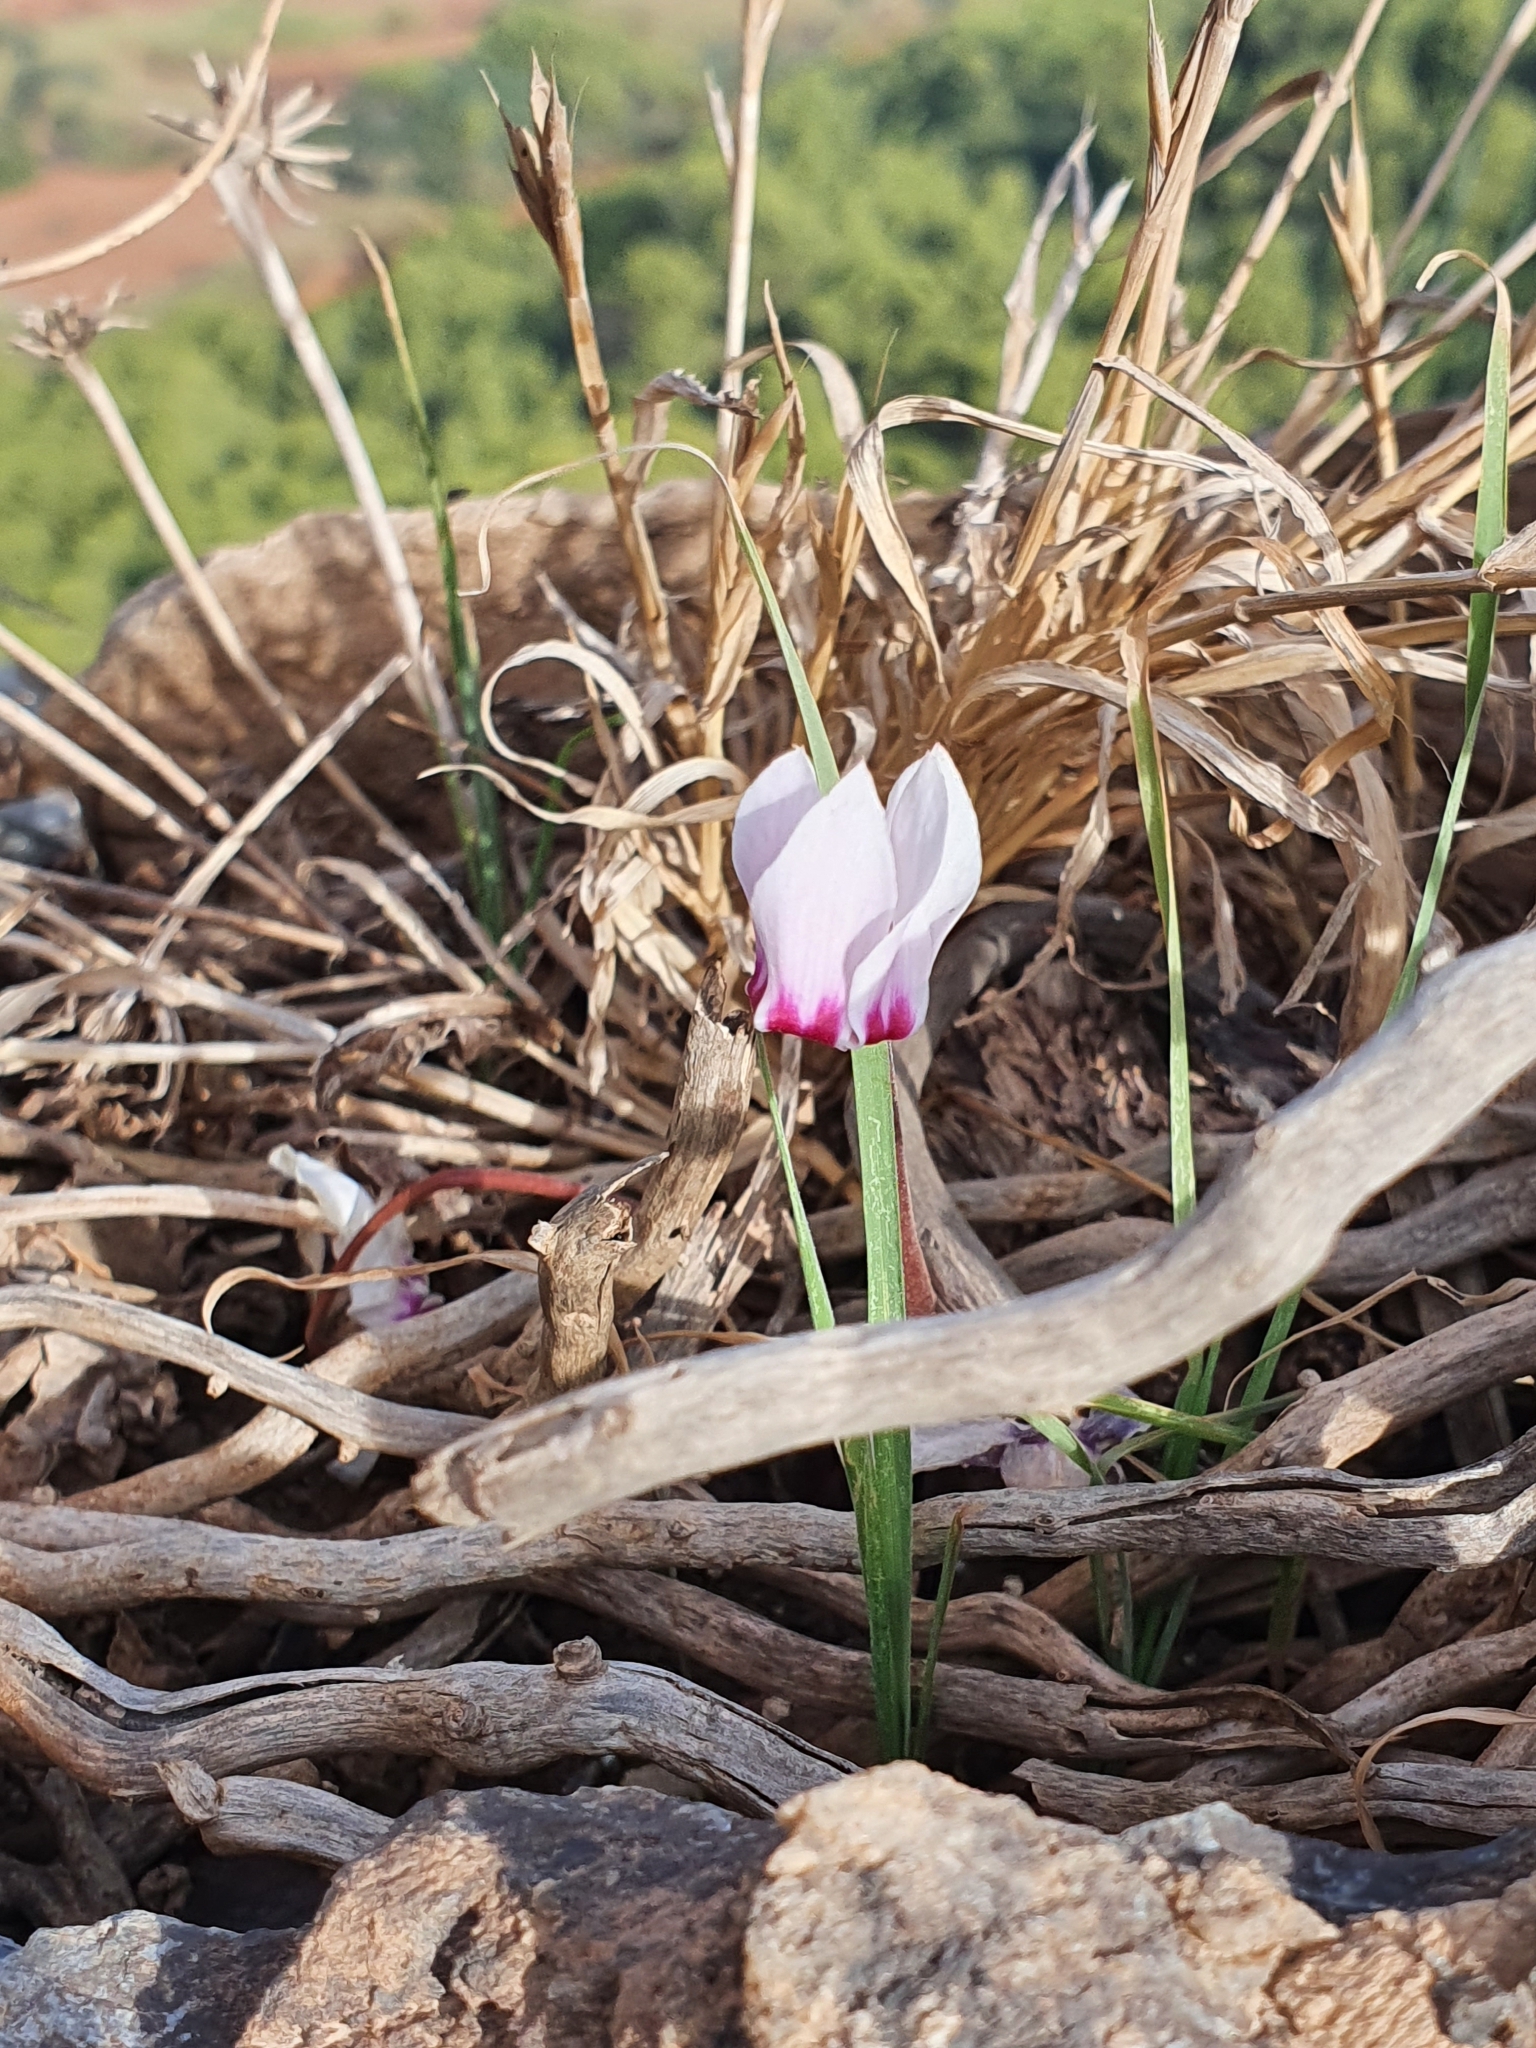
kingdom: Plantae
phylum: Tracheophyta
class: Magnoliopsida
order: Ericales
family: Primulaceae
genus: Cyclamen
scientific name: Cyclamen africanum
